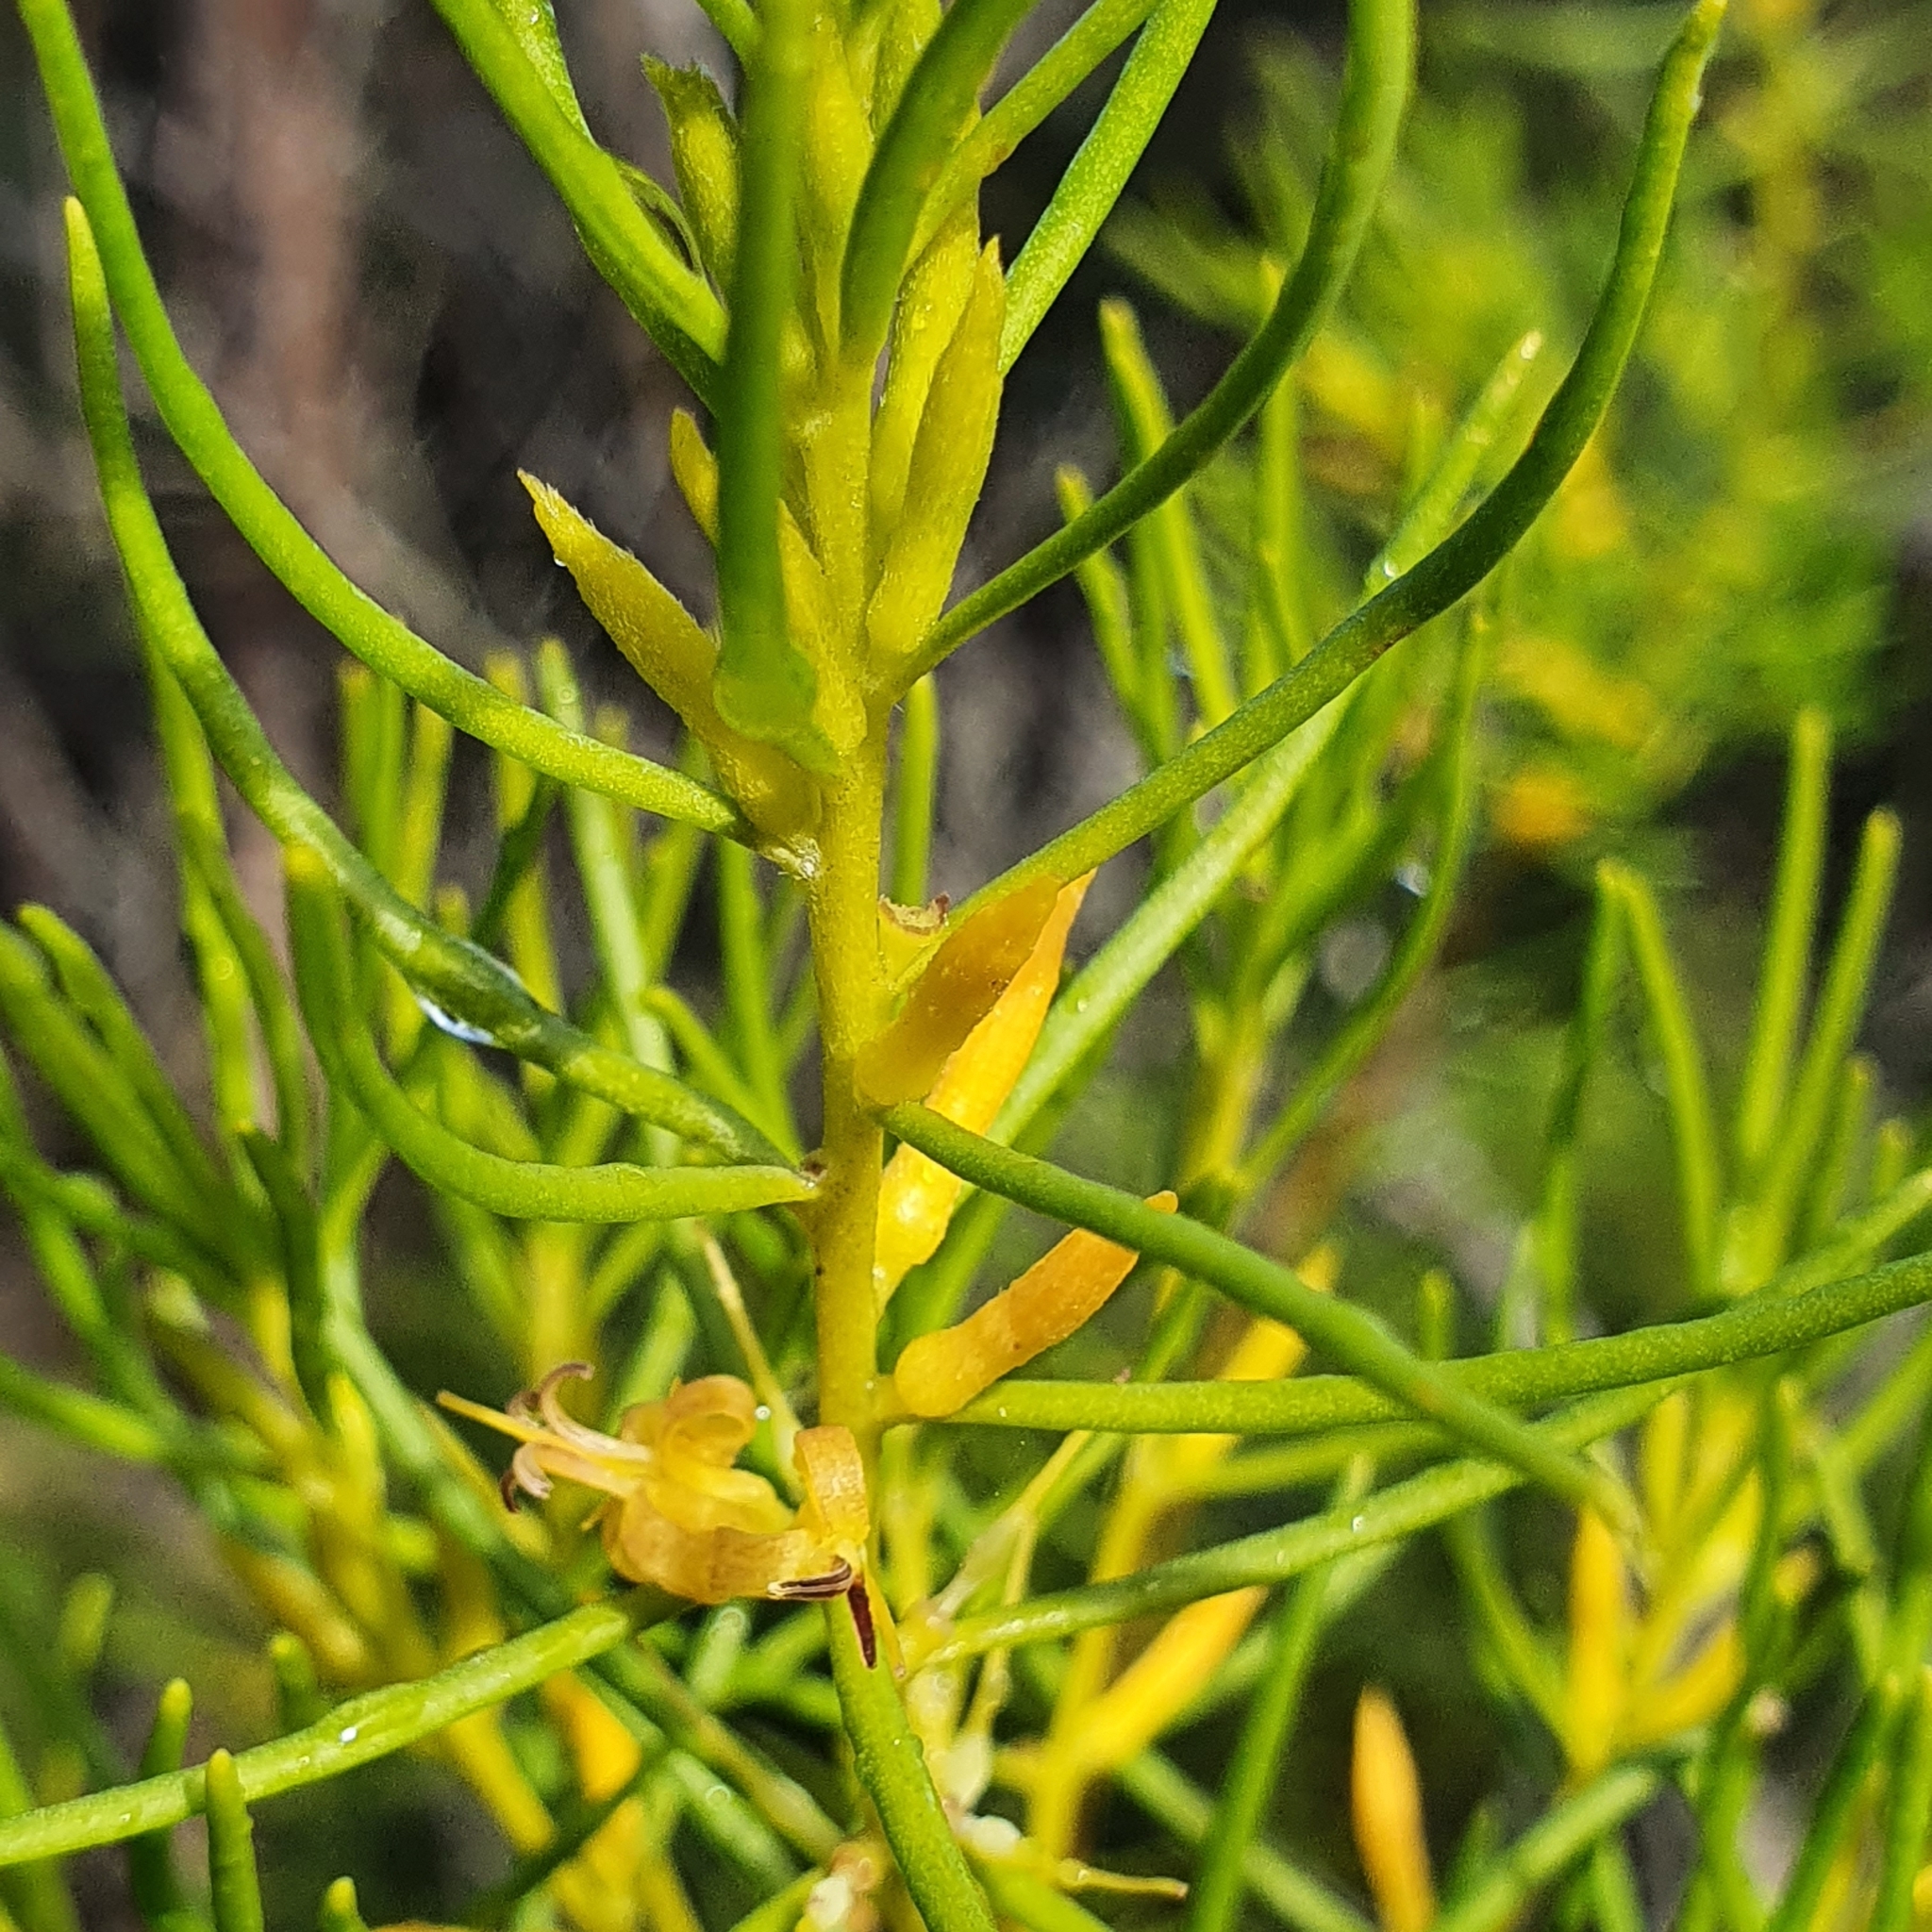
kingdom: Plantae
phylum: Tracheophyta
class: Magnoliopsida
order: Proteales
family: Proteaceae
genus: Persoonia
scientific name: Persoonia mollis
